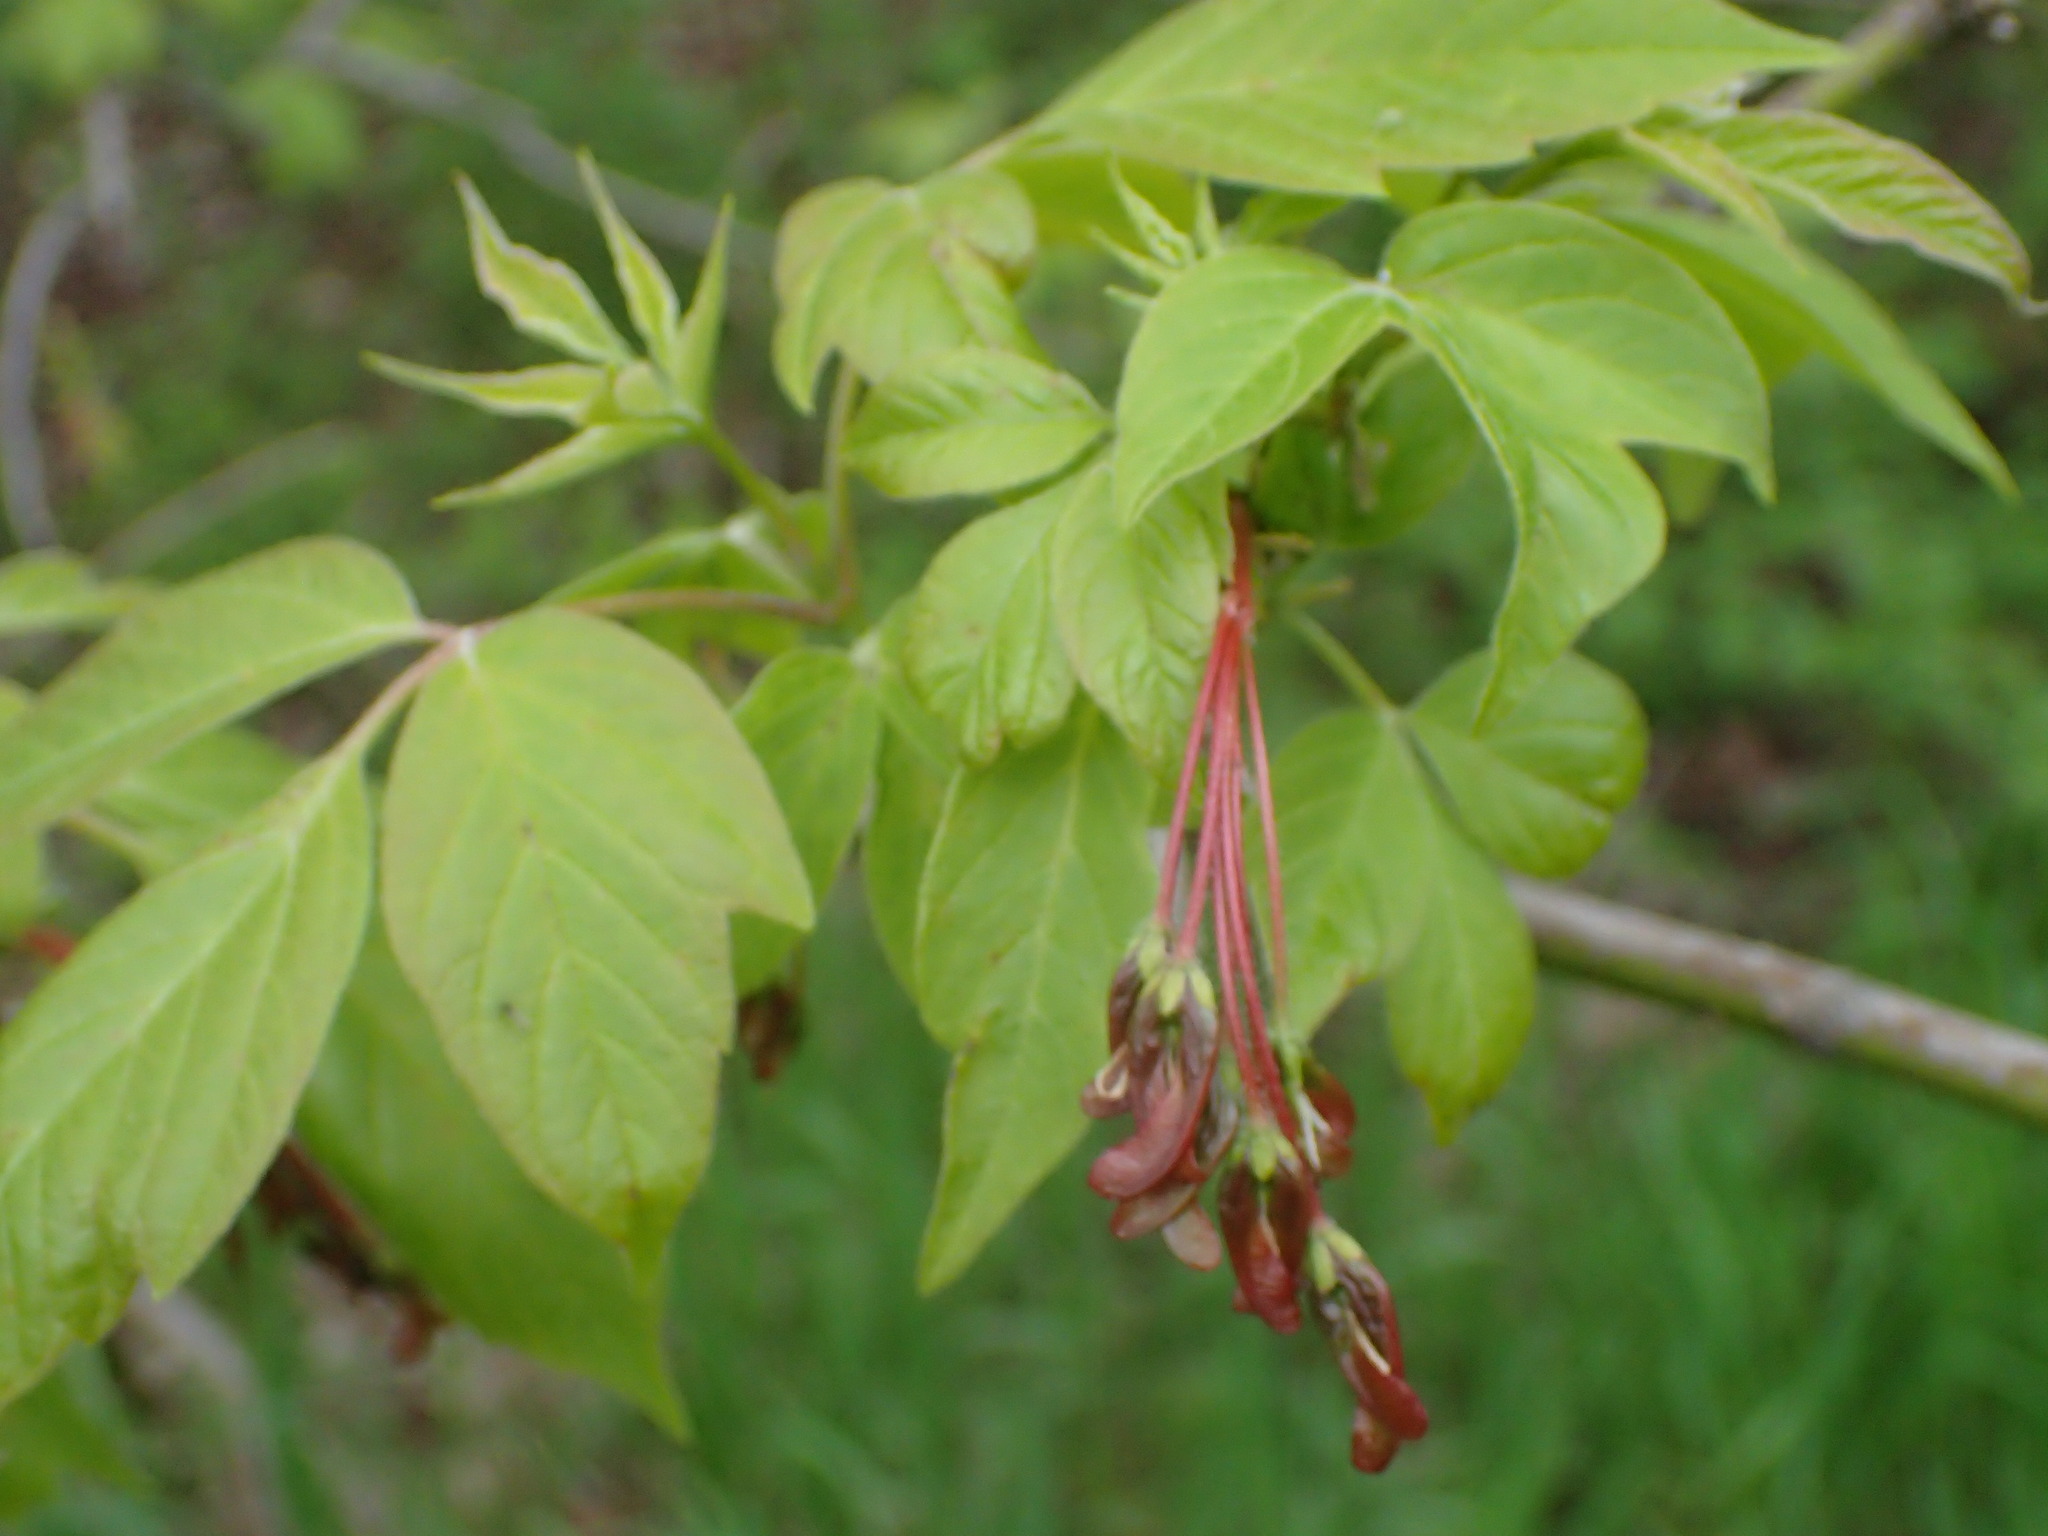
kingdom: Plantae
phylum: Tracheophyta
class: Magnoliopsida
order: Sapindales
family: Sapindaceae
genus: Acer
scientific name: Acer negundo
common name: Ashleaf maple
